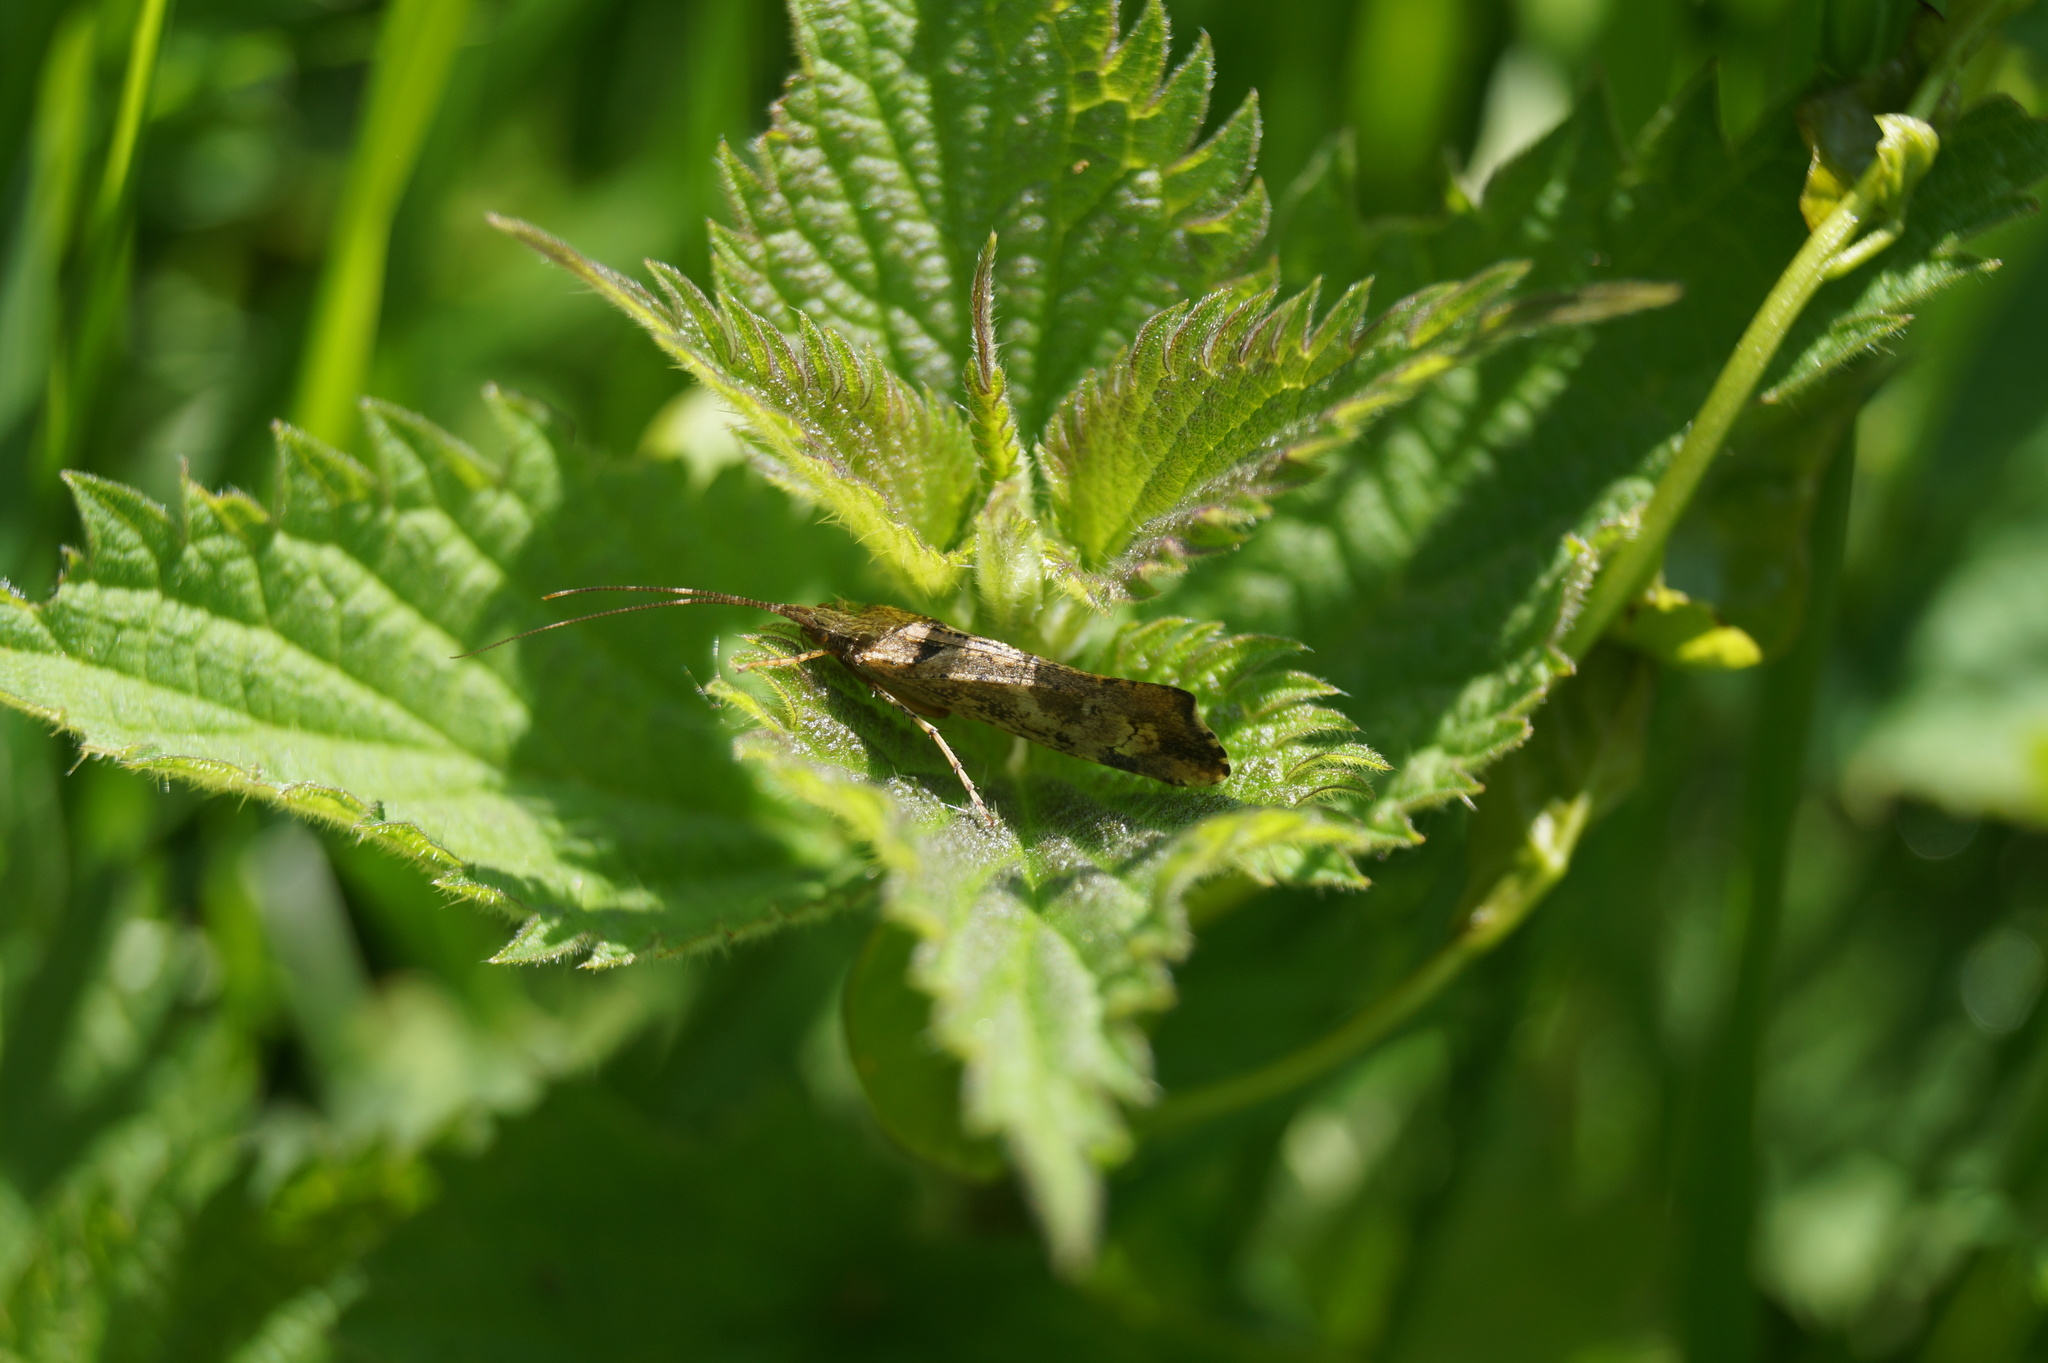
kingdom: Animalia
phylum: Arthropoda
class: Insecta
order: Trichoptera
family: Limnephilidae
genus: Glyphotaelius
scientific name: Glyphotaelius pellucidus
